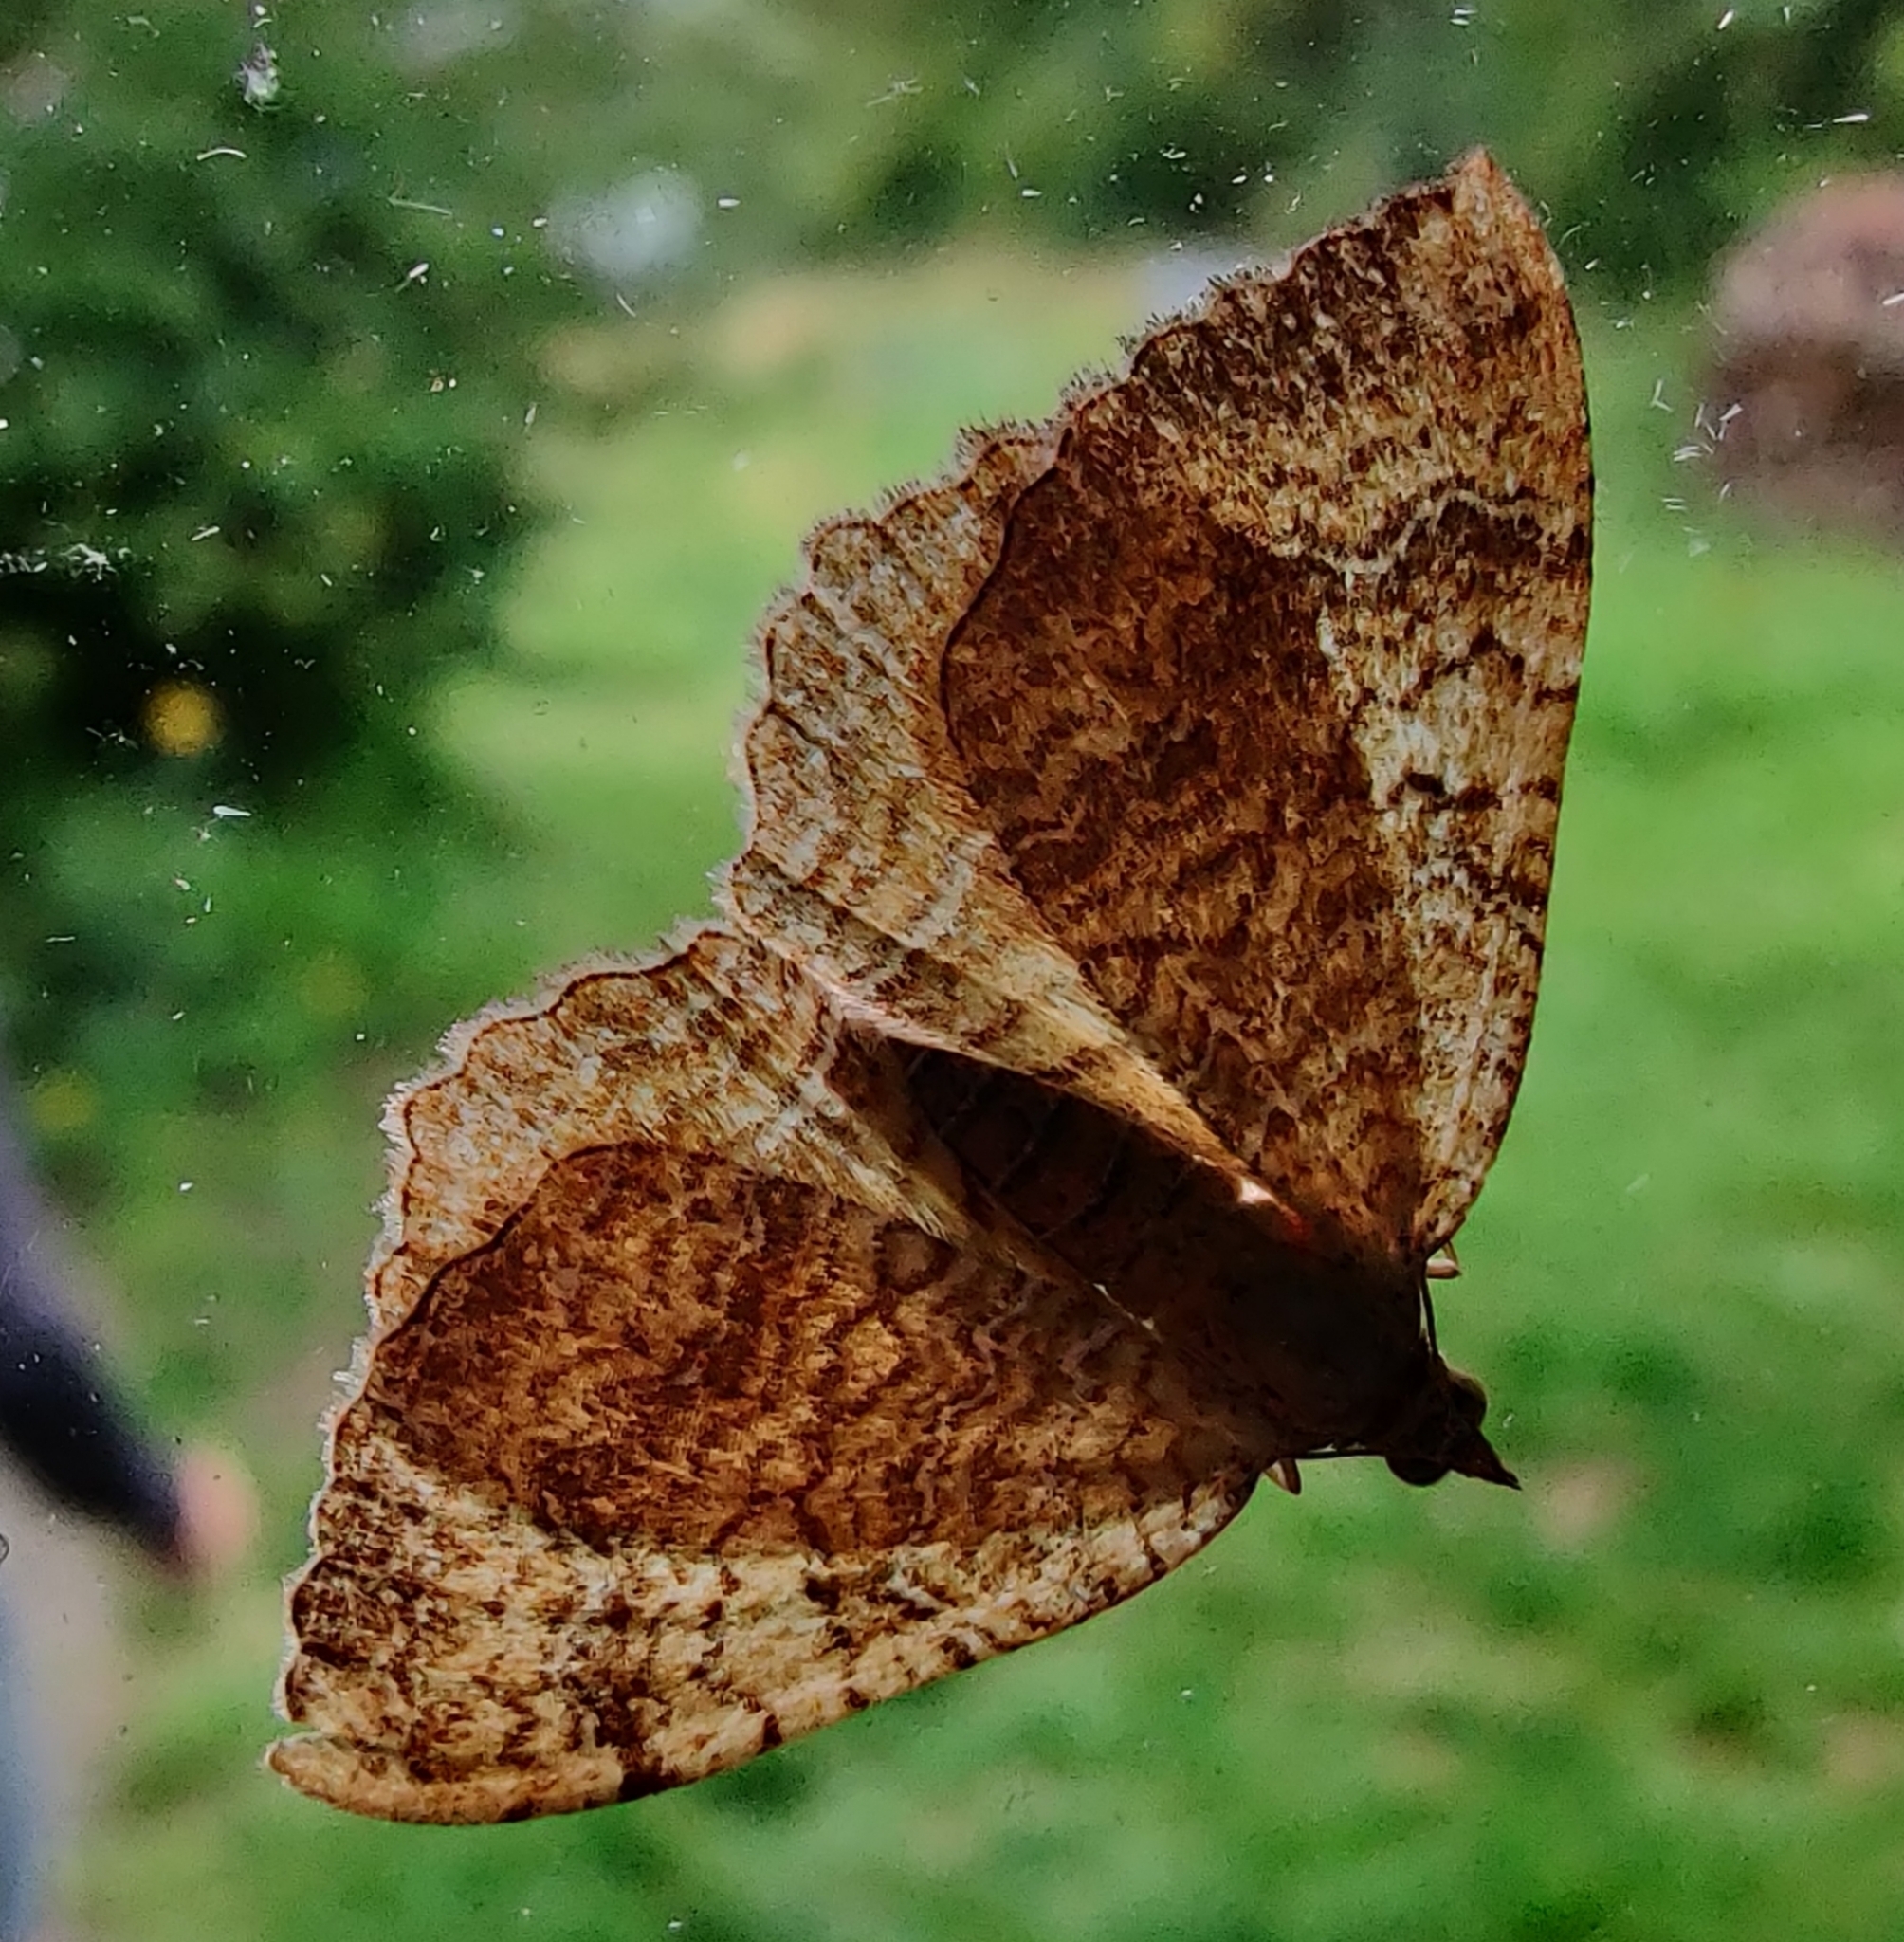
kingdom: Animalia
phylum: Arthropoda
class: Insecta
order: Lepidoptera
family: Geometridae
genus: Camptogramma
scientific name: Camptogramma bilineata
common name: Yellow shell
